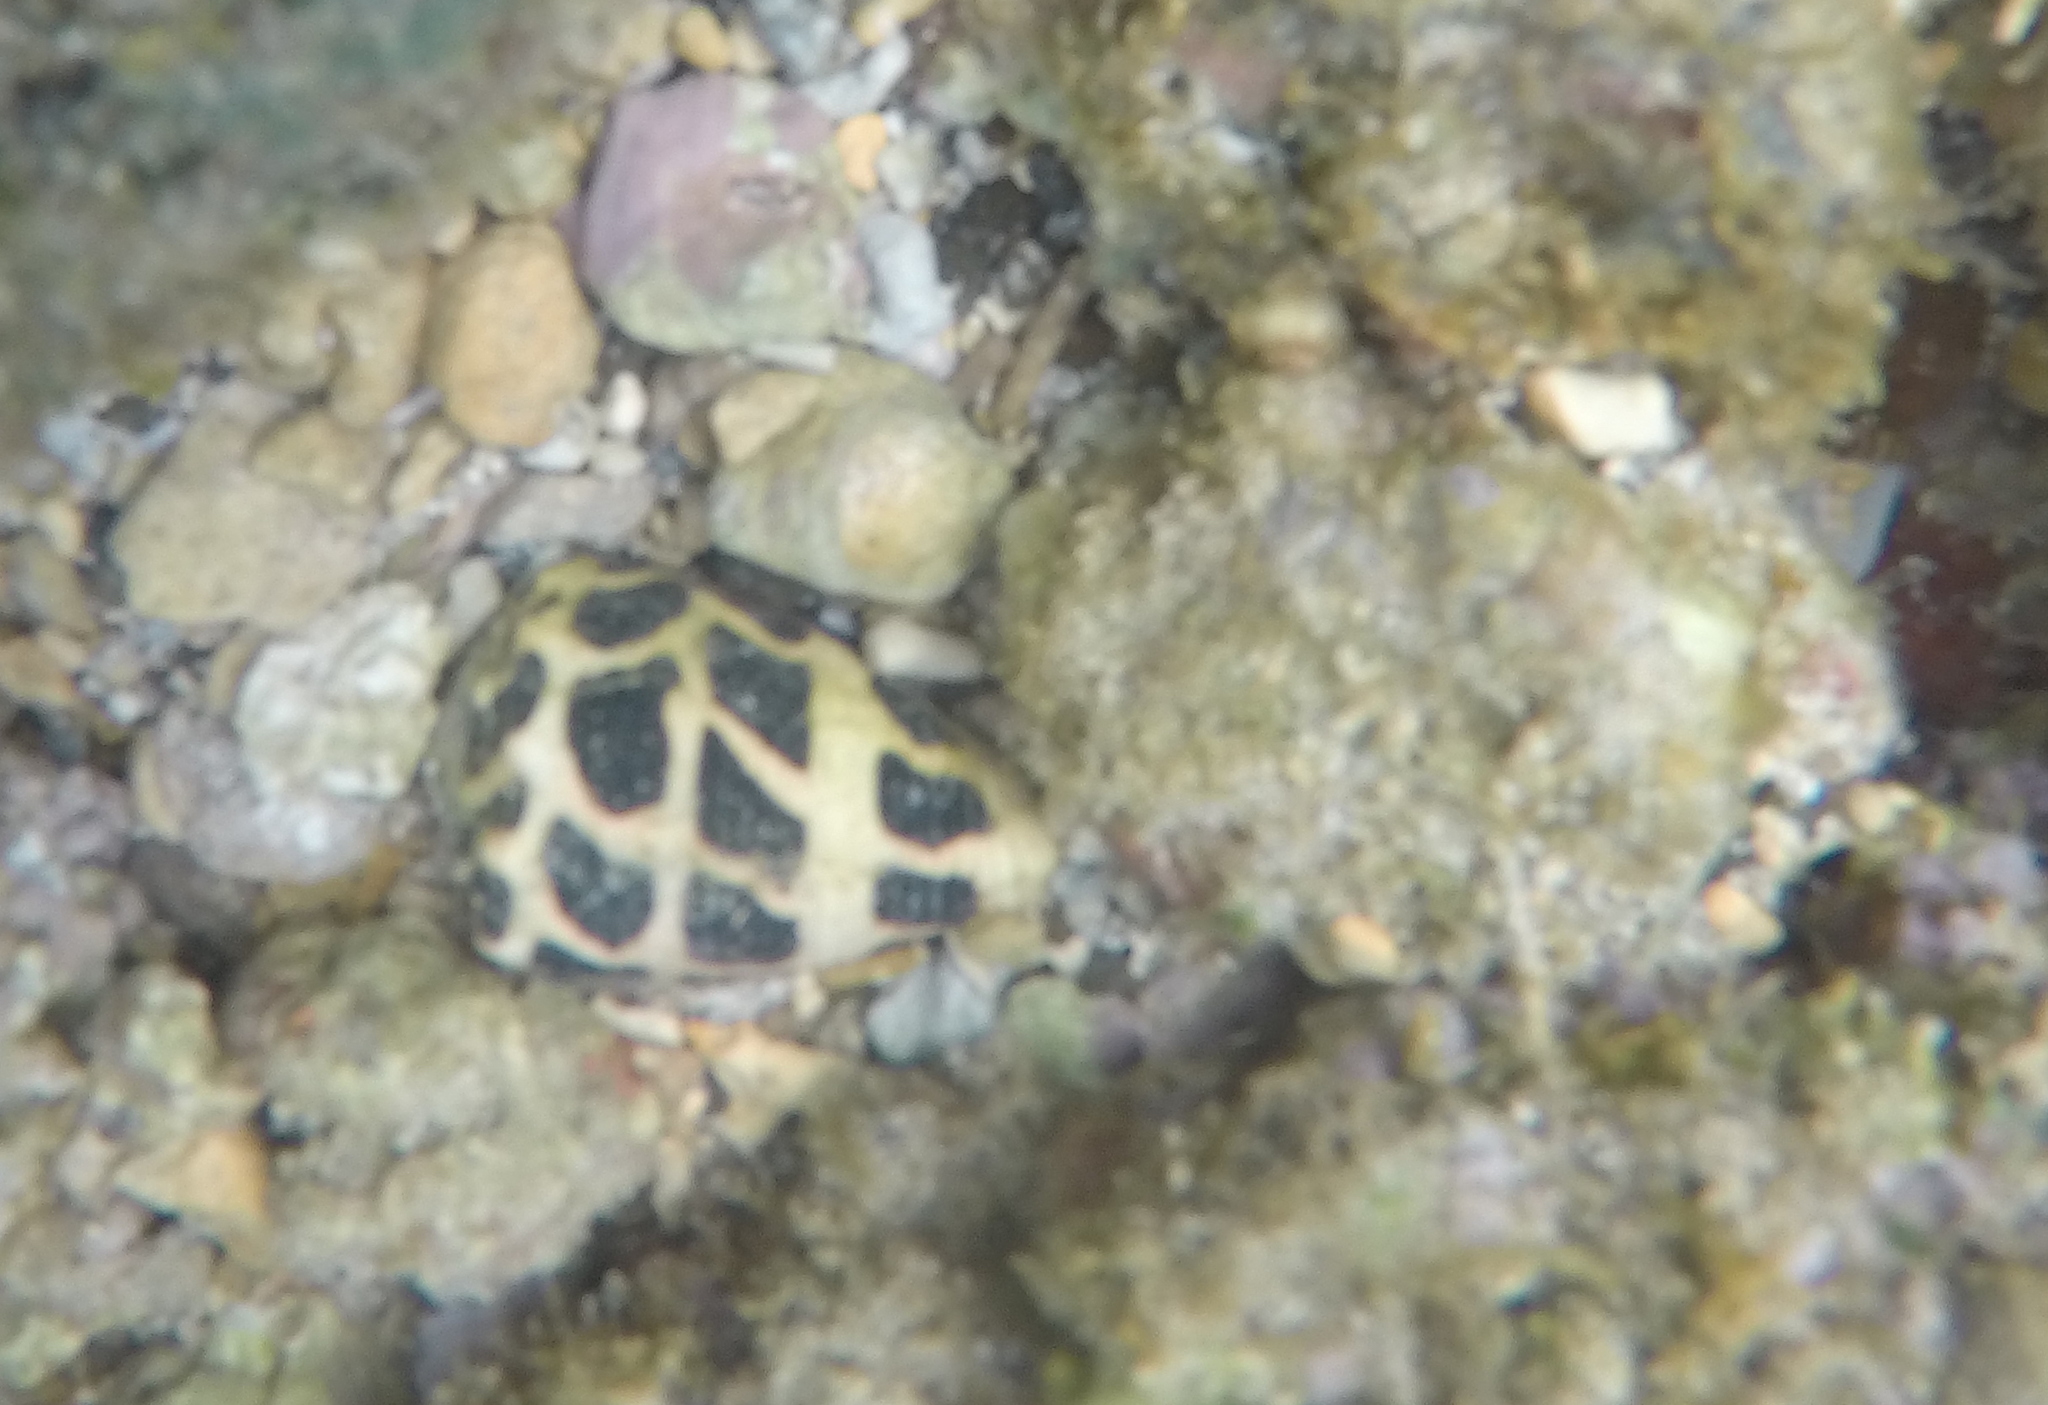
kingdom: Animalia
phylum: Mollusca
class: Gastropoda
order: Neogastropoda
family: Conidae
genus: Conus
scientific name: Conus ebraeus
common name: Hebrew cone
